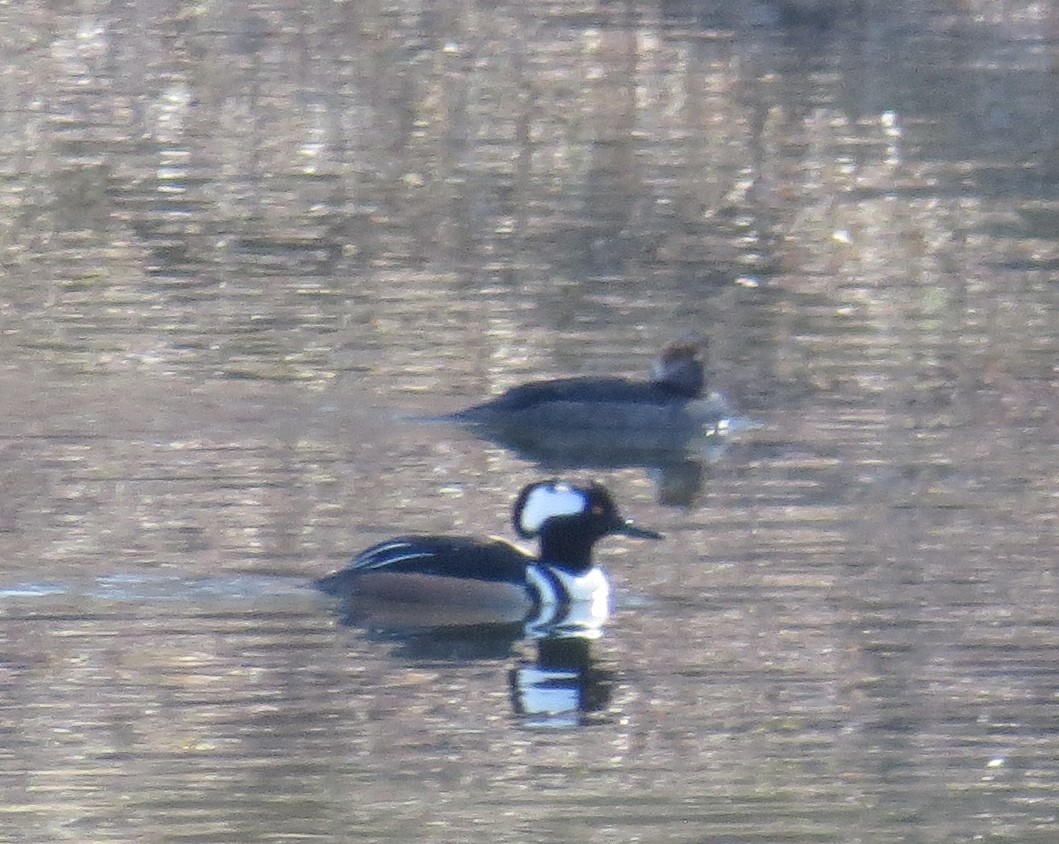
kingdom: Animalia
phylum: Chordata
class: Aves
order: Anseriformes
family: Anatidae
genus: Lophodytes
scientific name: Lophodytes cucullatus
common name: Hooded merganser
